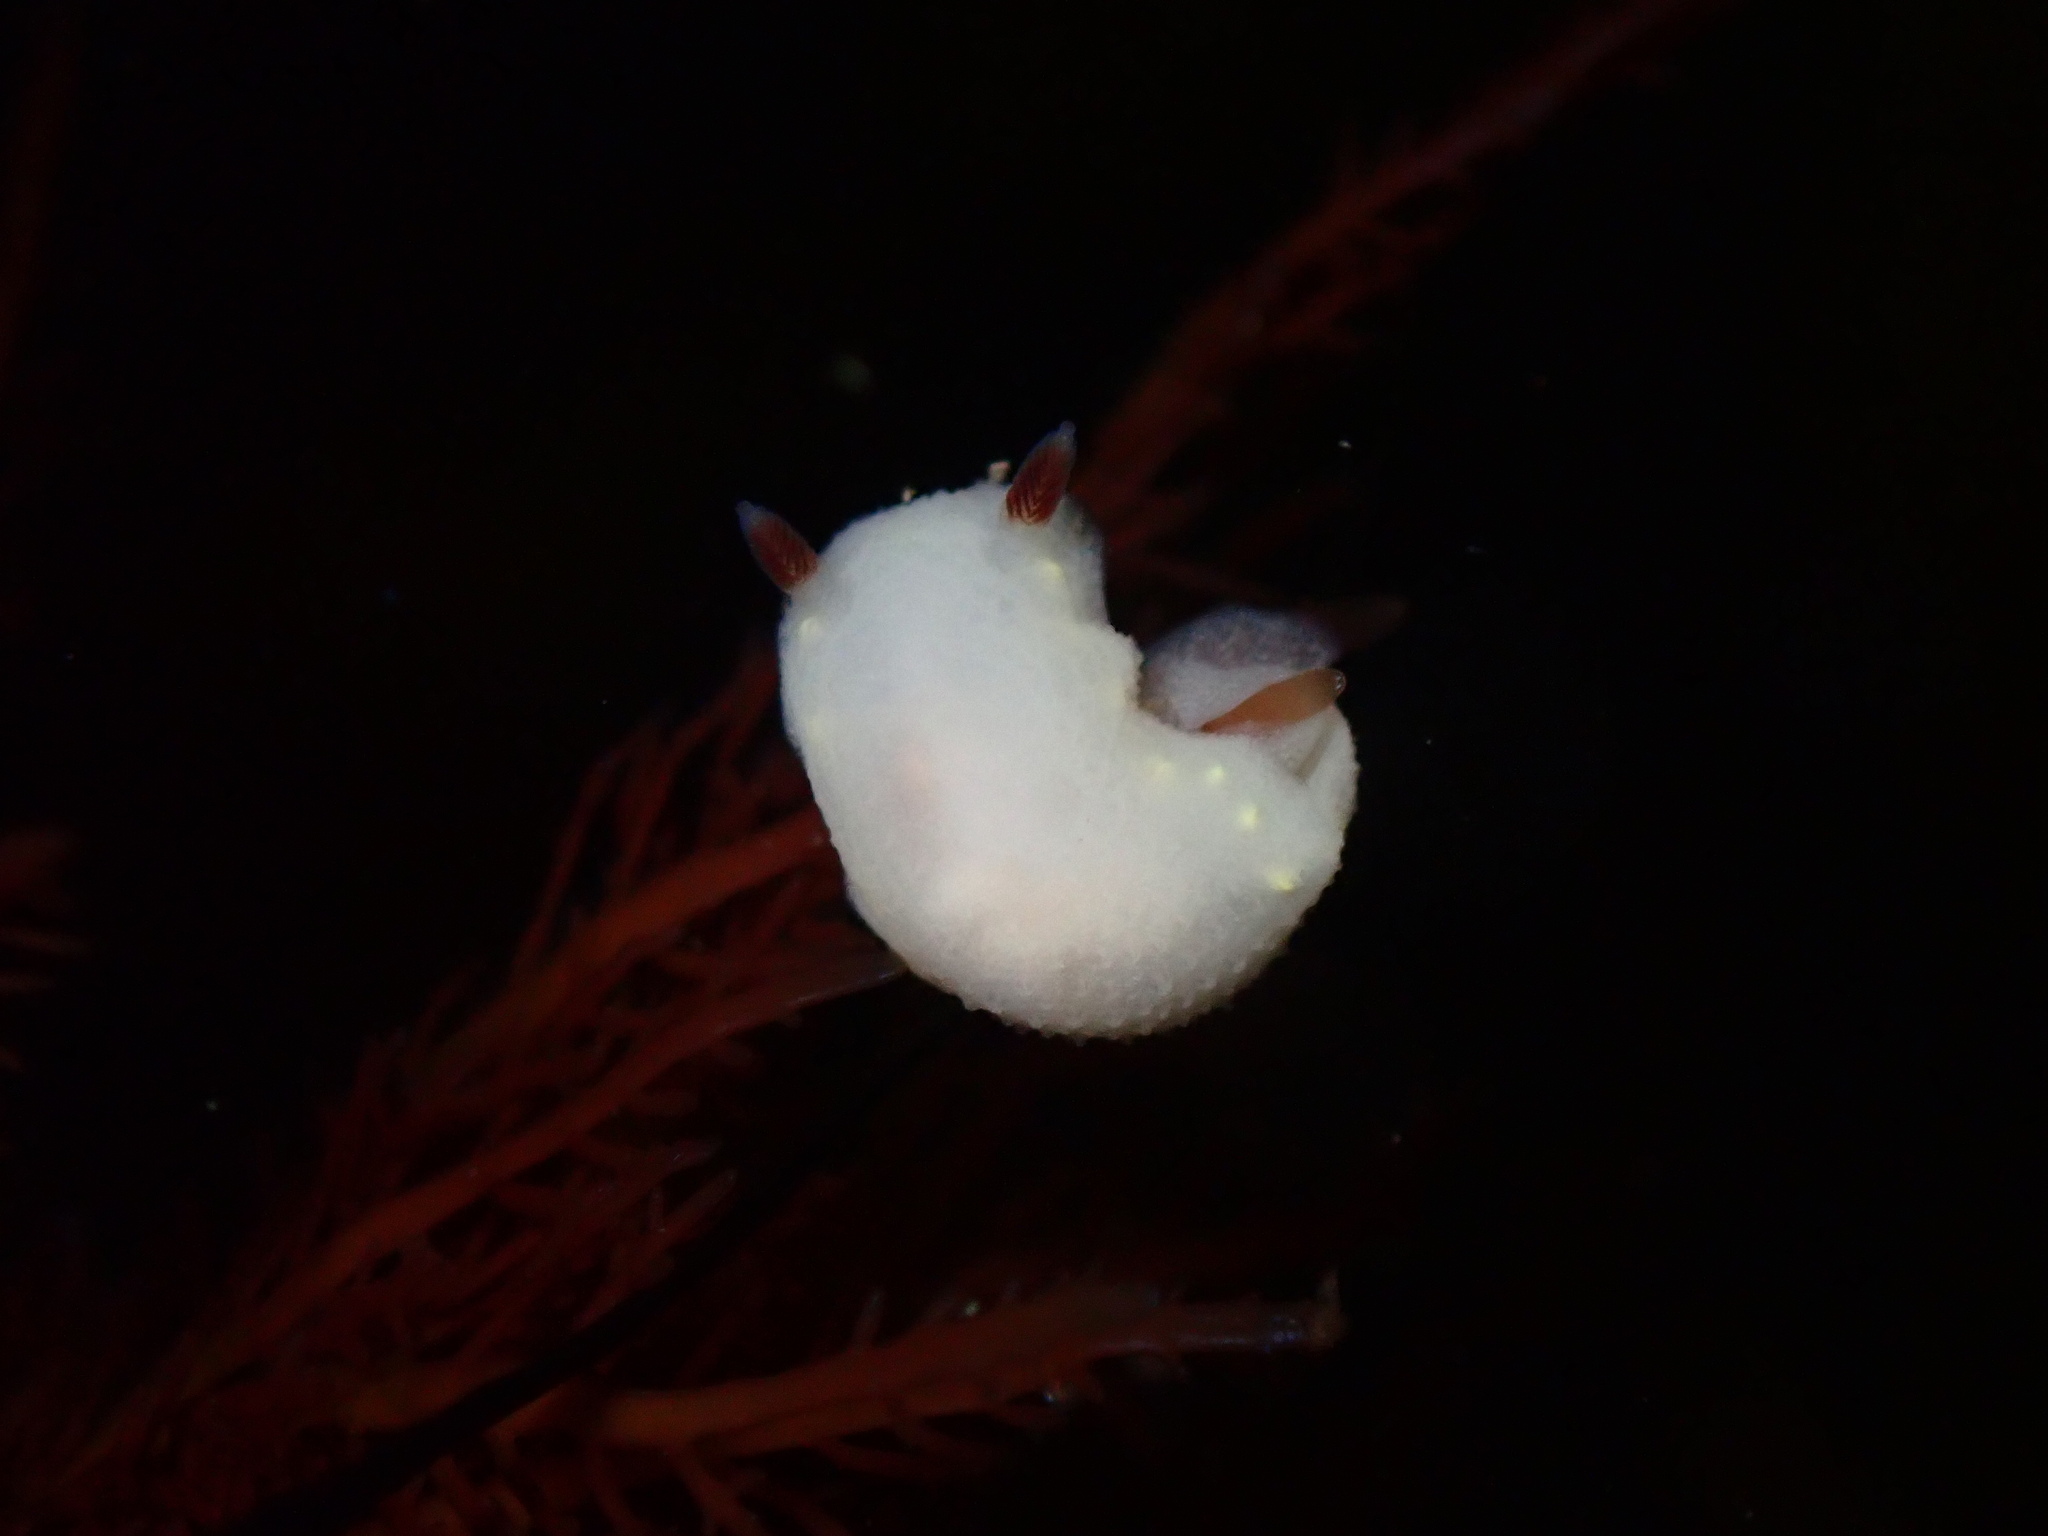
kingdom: Animalia
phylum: Mollusca
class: Gastropoda
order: Nudibranchia
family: Cadlinidae
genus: Cadlina
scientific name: Cadlina flavomaculata
